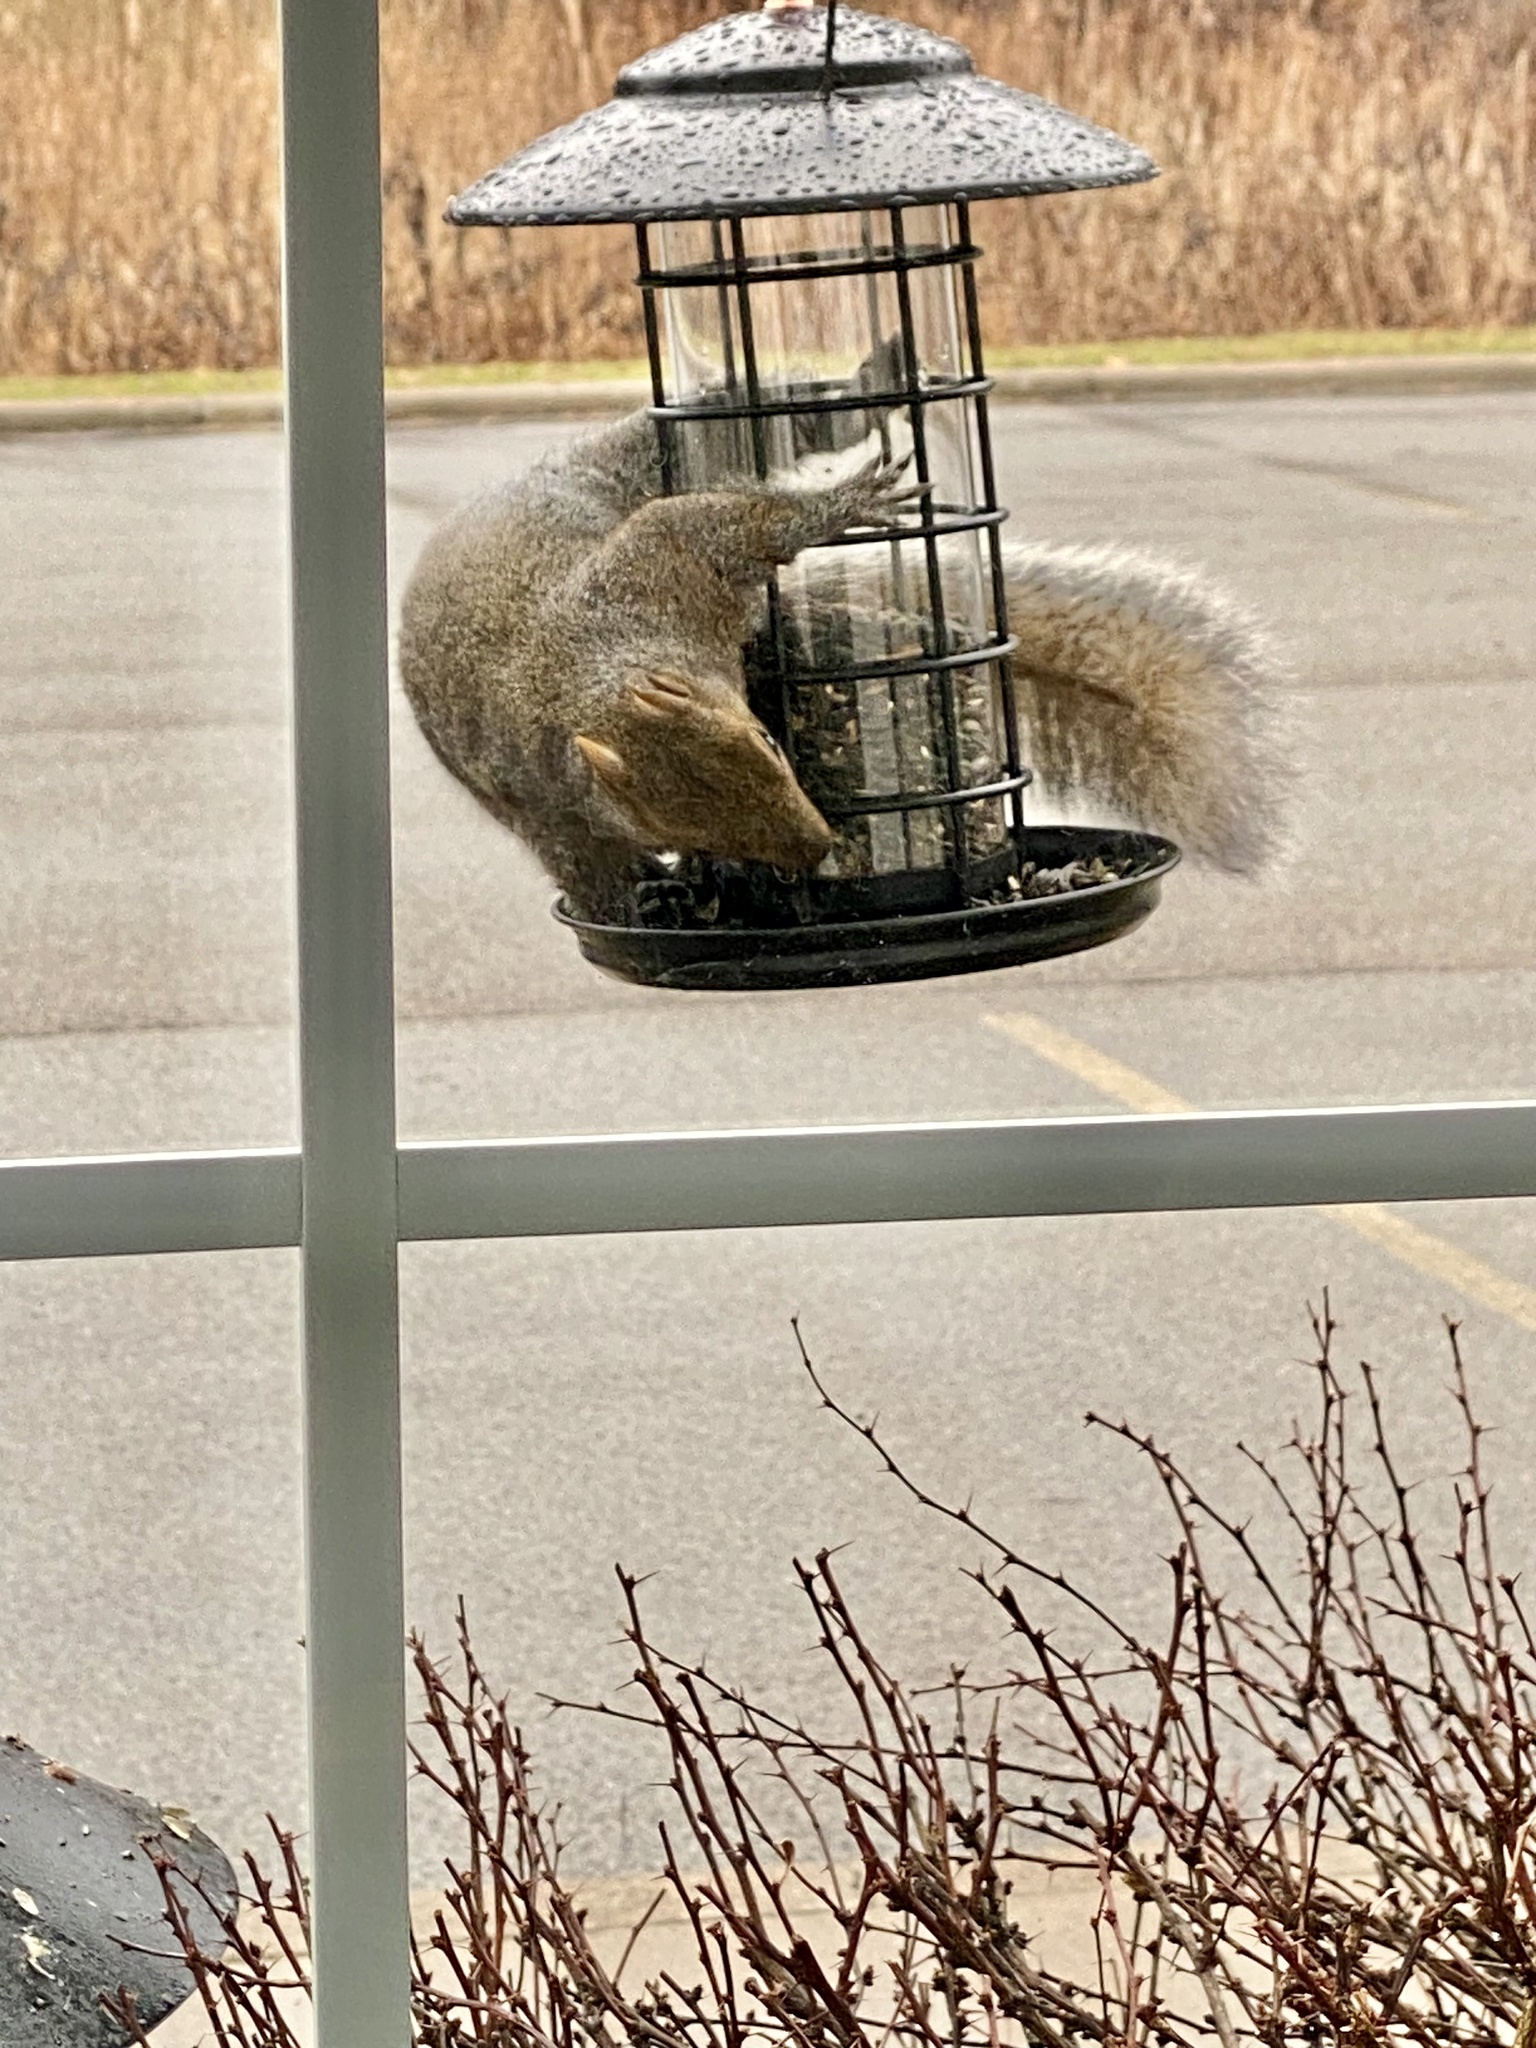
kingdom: Animalia
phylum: Chordata
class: Mammalia
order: Rodentia
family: Sciuridae
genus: Sciurus
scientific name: Sciurus carolinensis
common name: Eastern gray squirrel
